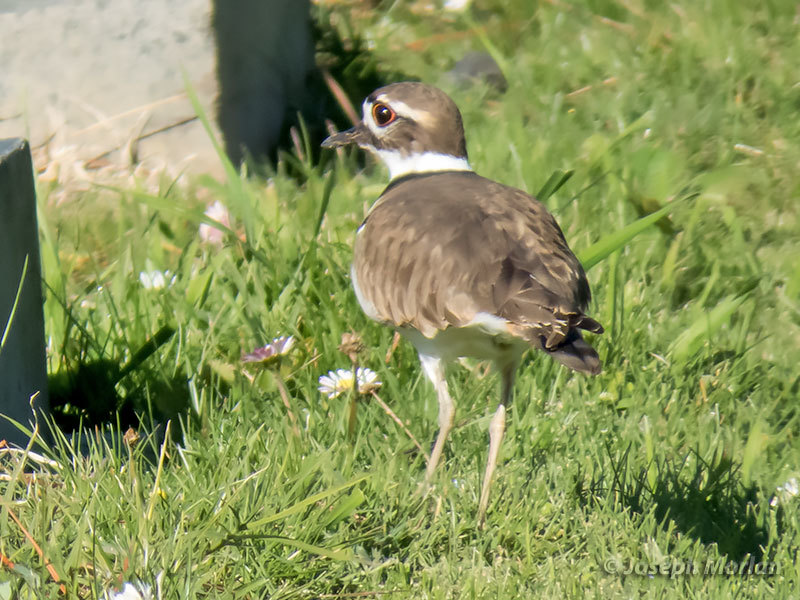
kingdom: Animalia
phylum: Chordata
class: Aves
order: Charadriiformes
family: Charadriidae
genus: Charadrius
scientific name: Charadrius vociferus
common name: Killdeer
